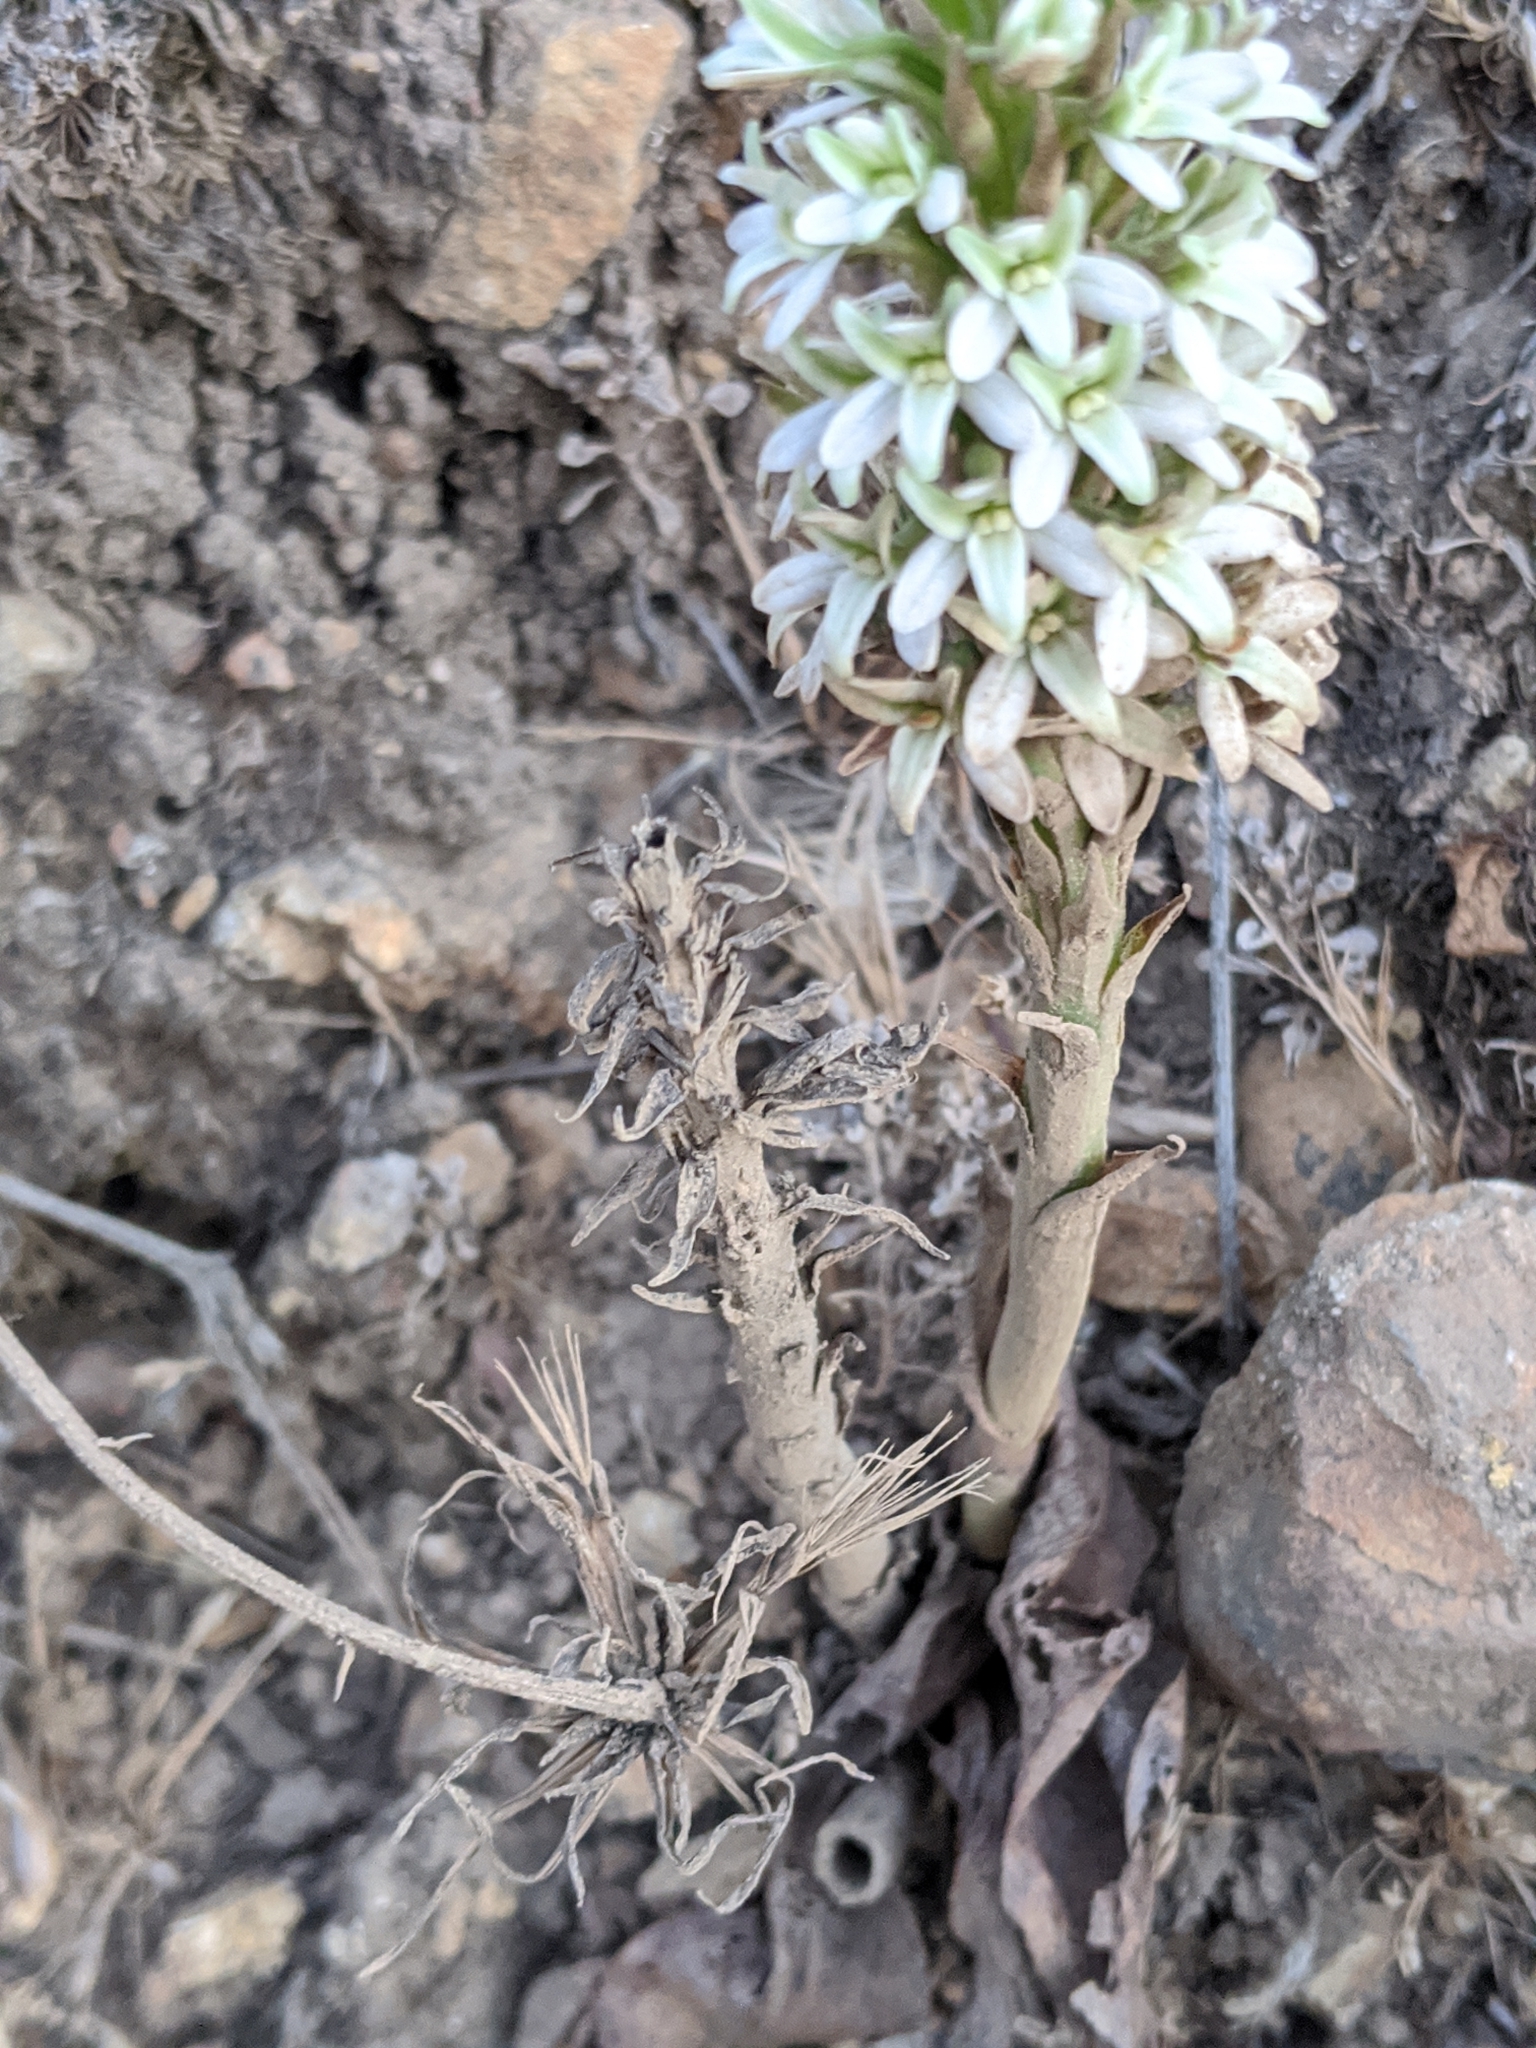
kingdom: Plantae
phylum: Tracheophyta
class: Liliopsida
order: Asparagales
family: Orchidaceae
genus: Platanthera
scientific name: Platanthera elegans
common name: Coast piperia
